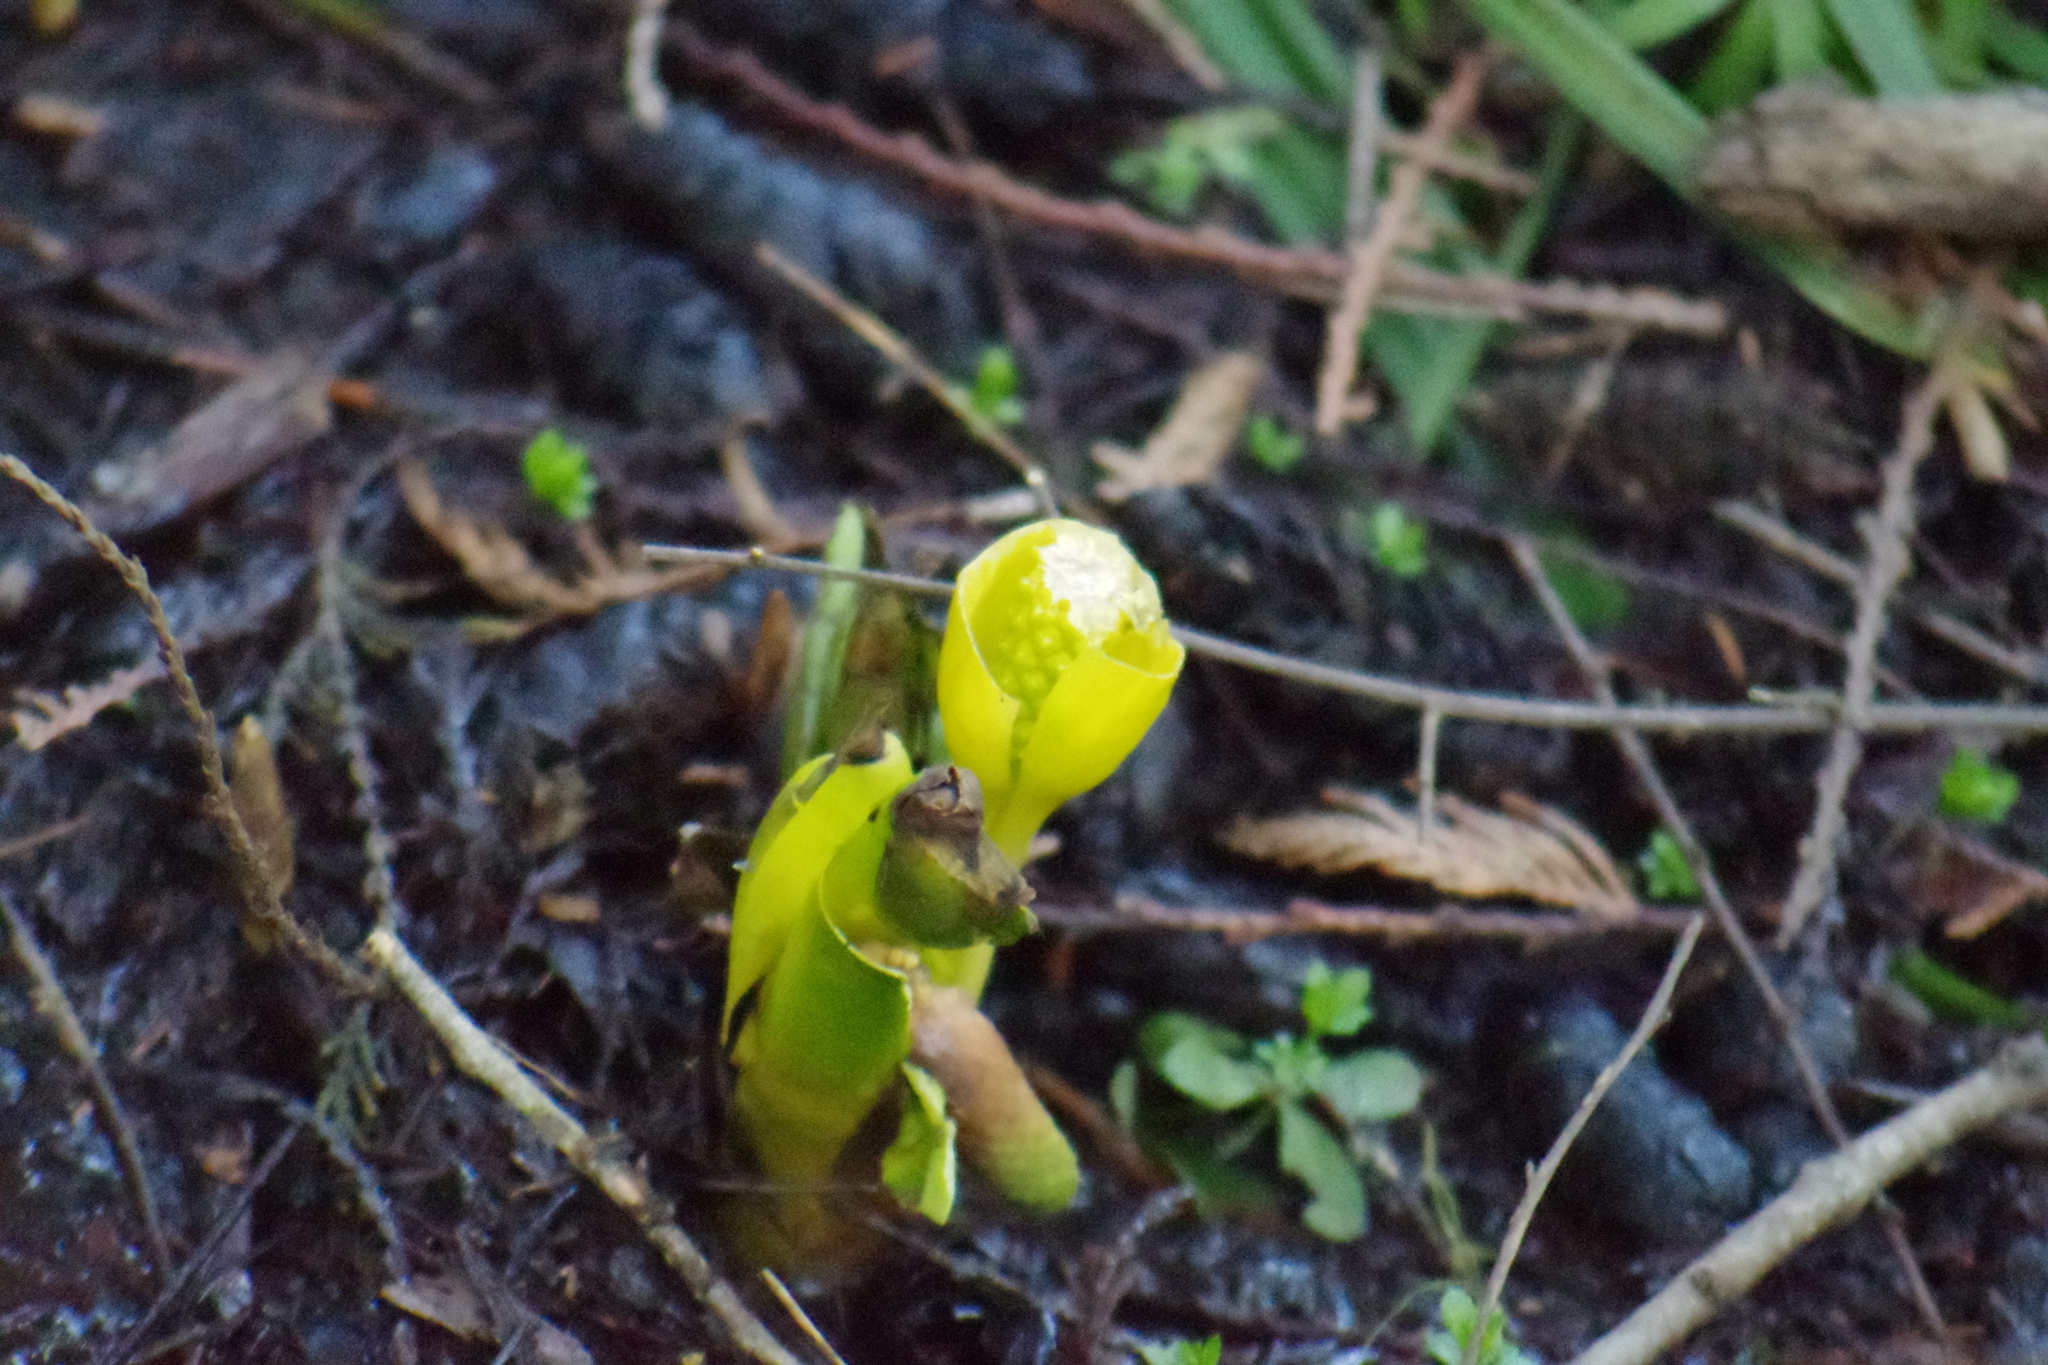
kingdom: Plantae
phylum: Tracheophyta
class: Liliopsida
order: Alismatales
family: Araceae
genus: Lysichiton
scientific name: Lysichiton americanus
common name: American skunk cabbage
